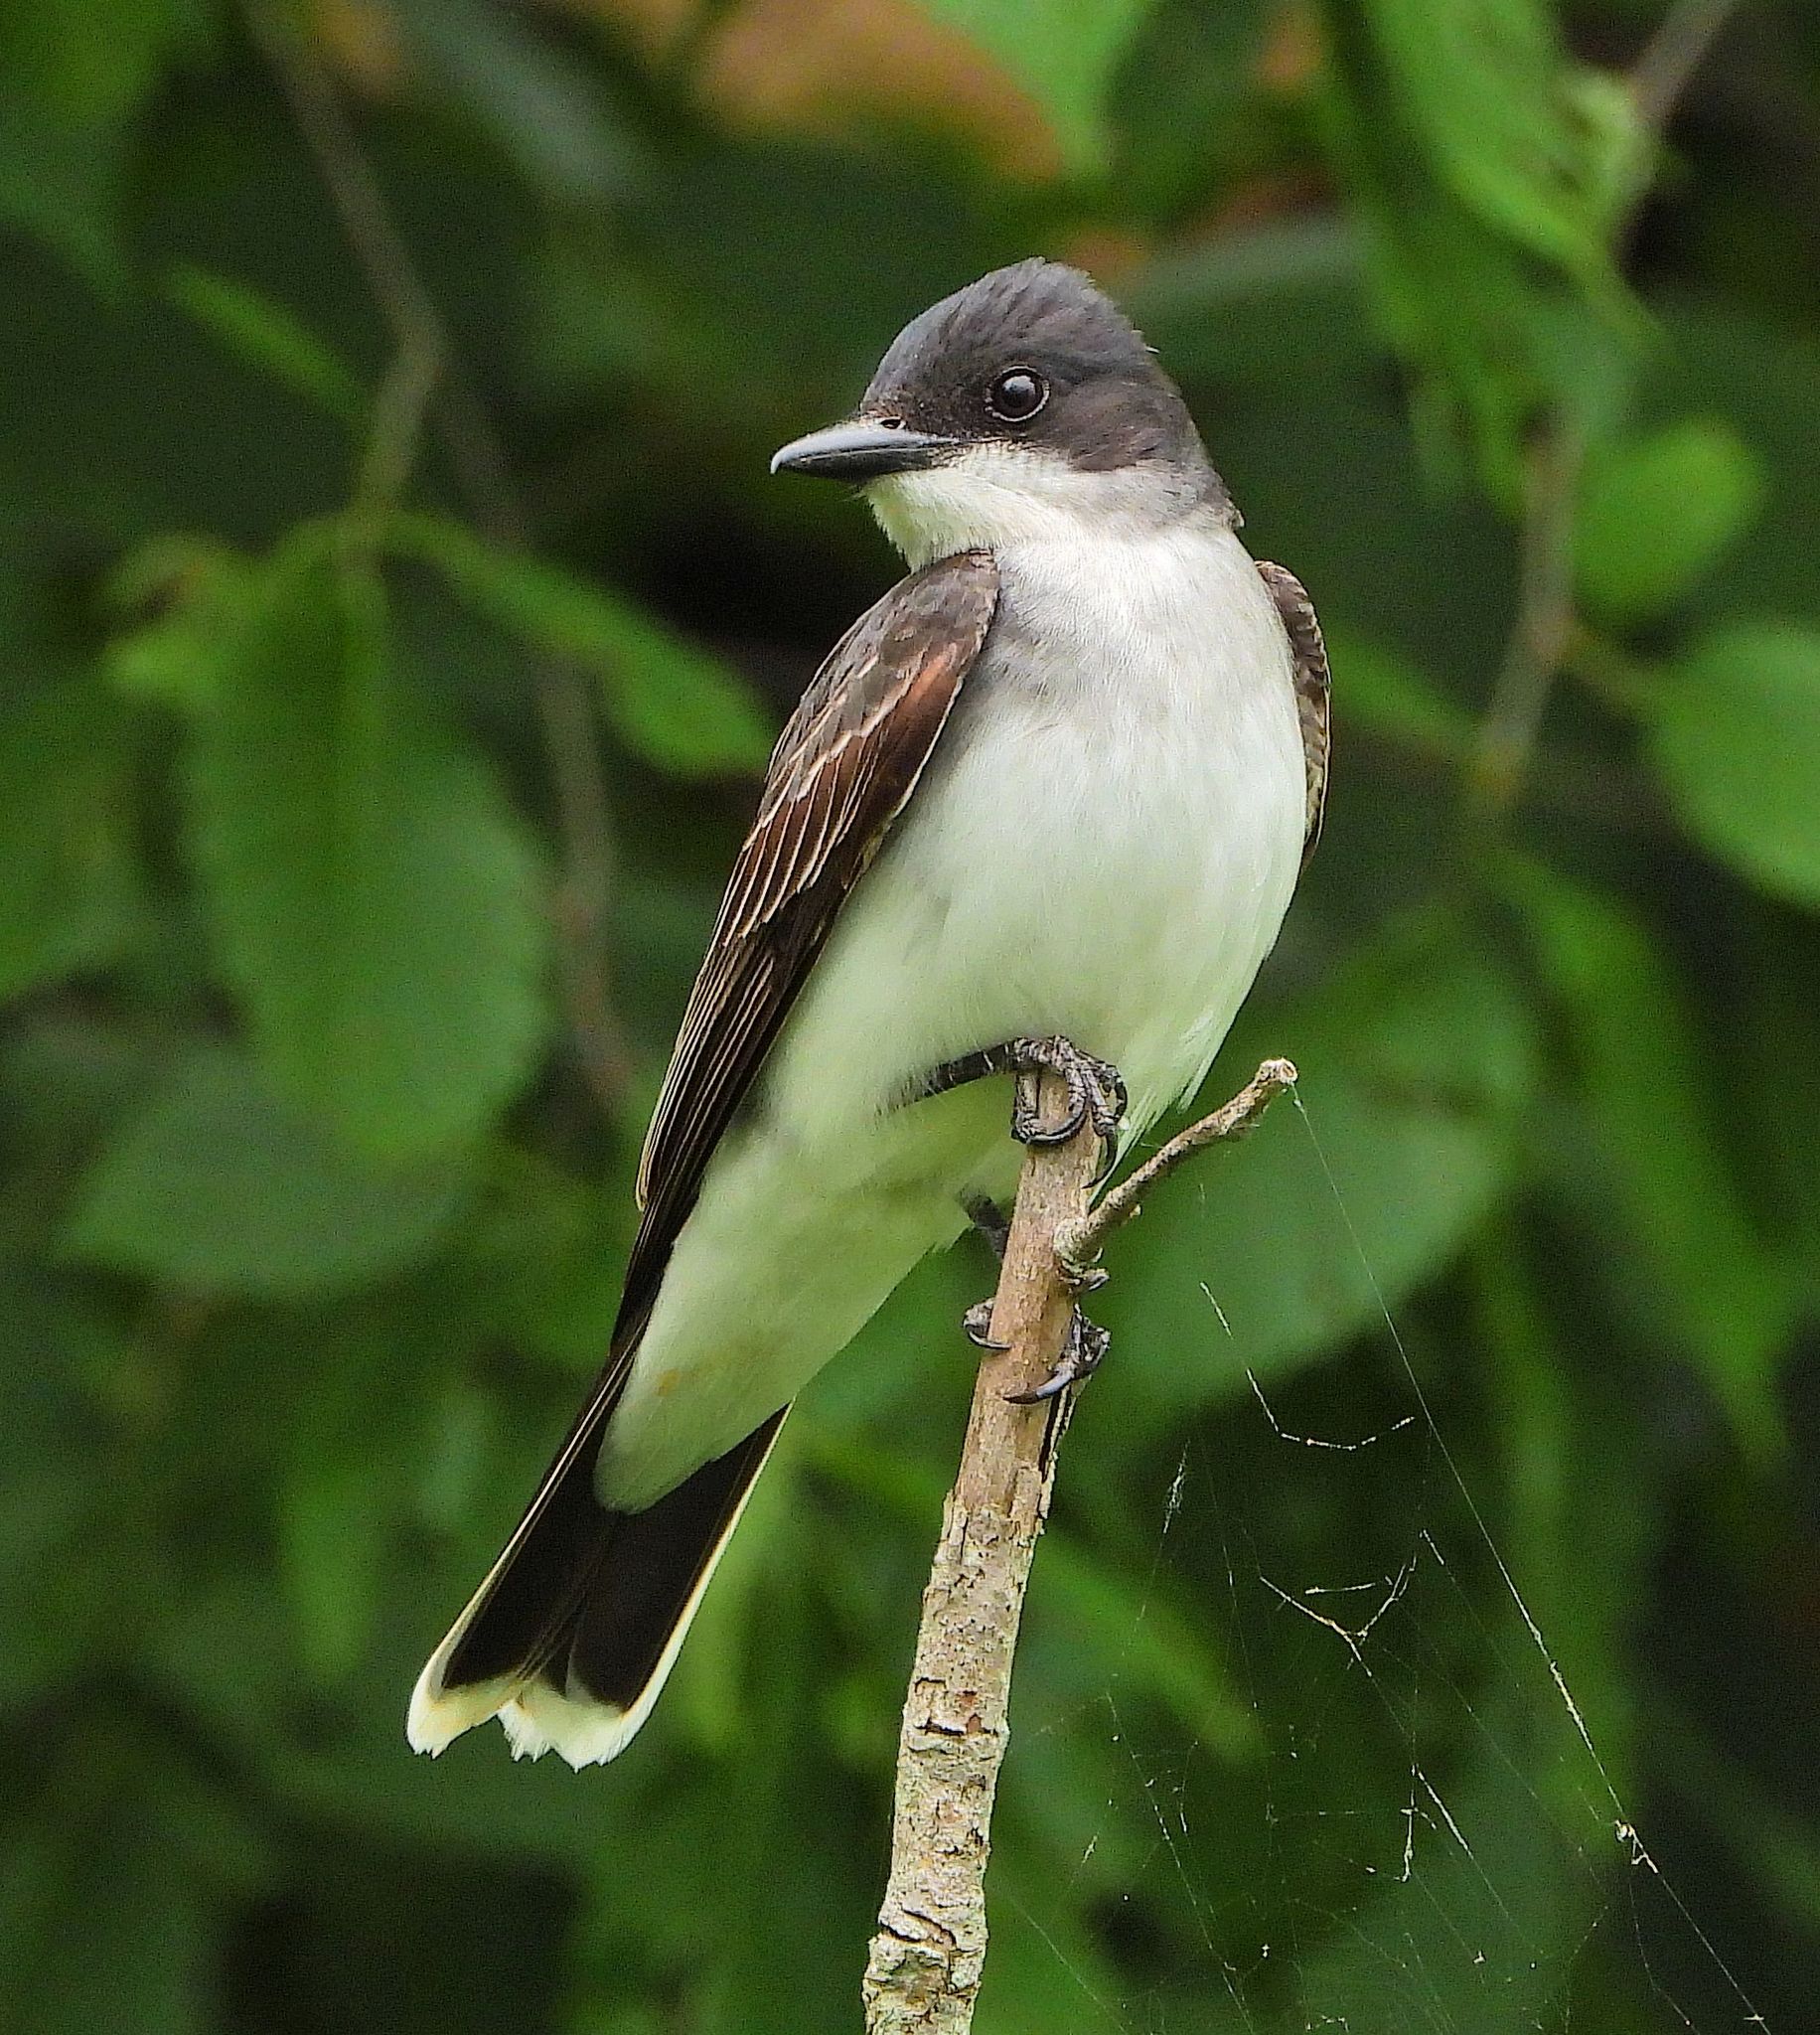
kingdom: Animalia
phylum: Chordata
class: Aves
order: Passeriformes
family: Tyrannidae
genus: Tyrannus
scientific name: Tyrannus tyrannus
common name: Eastern kingbird
